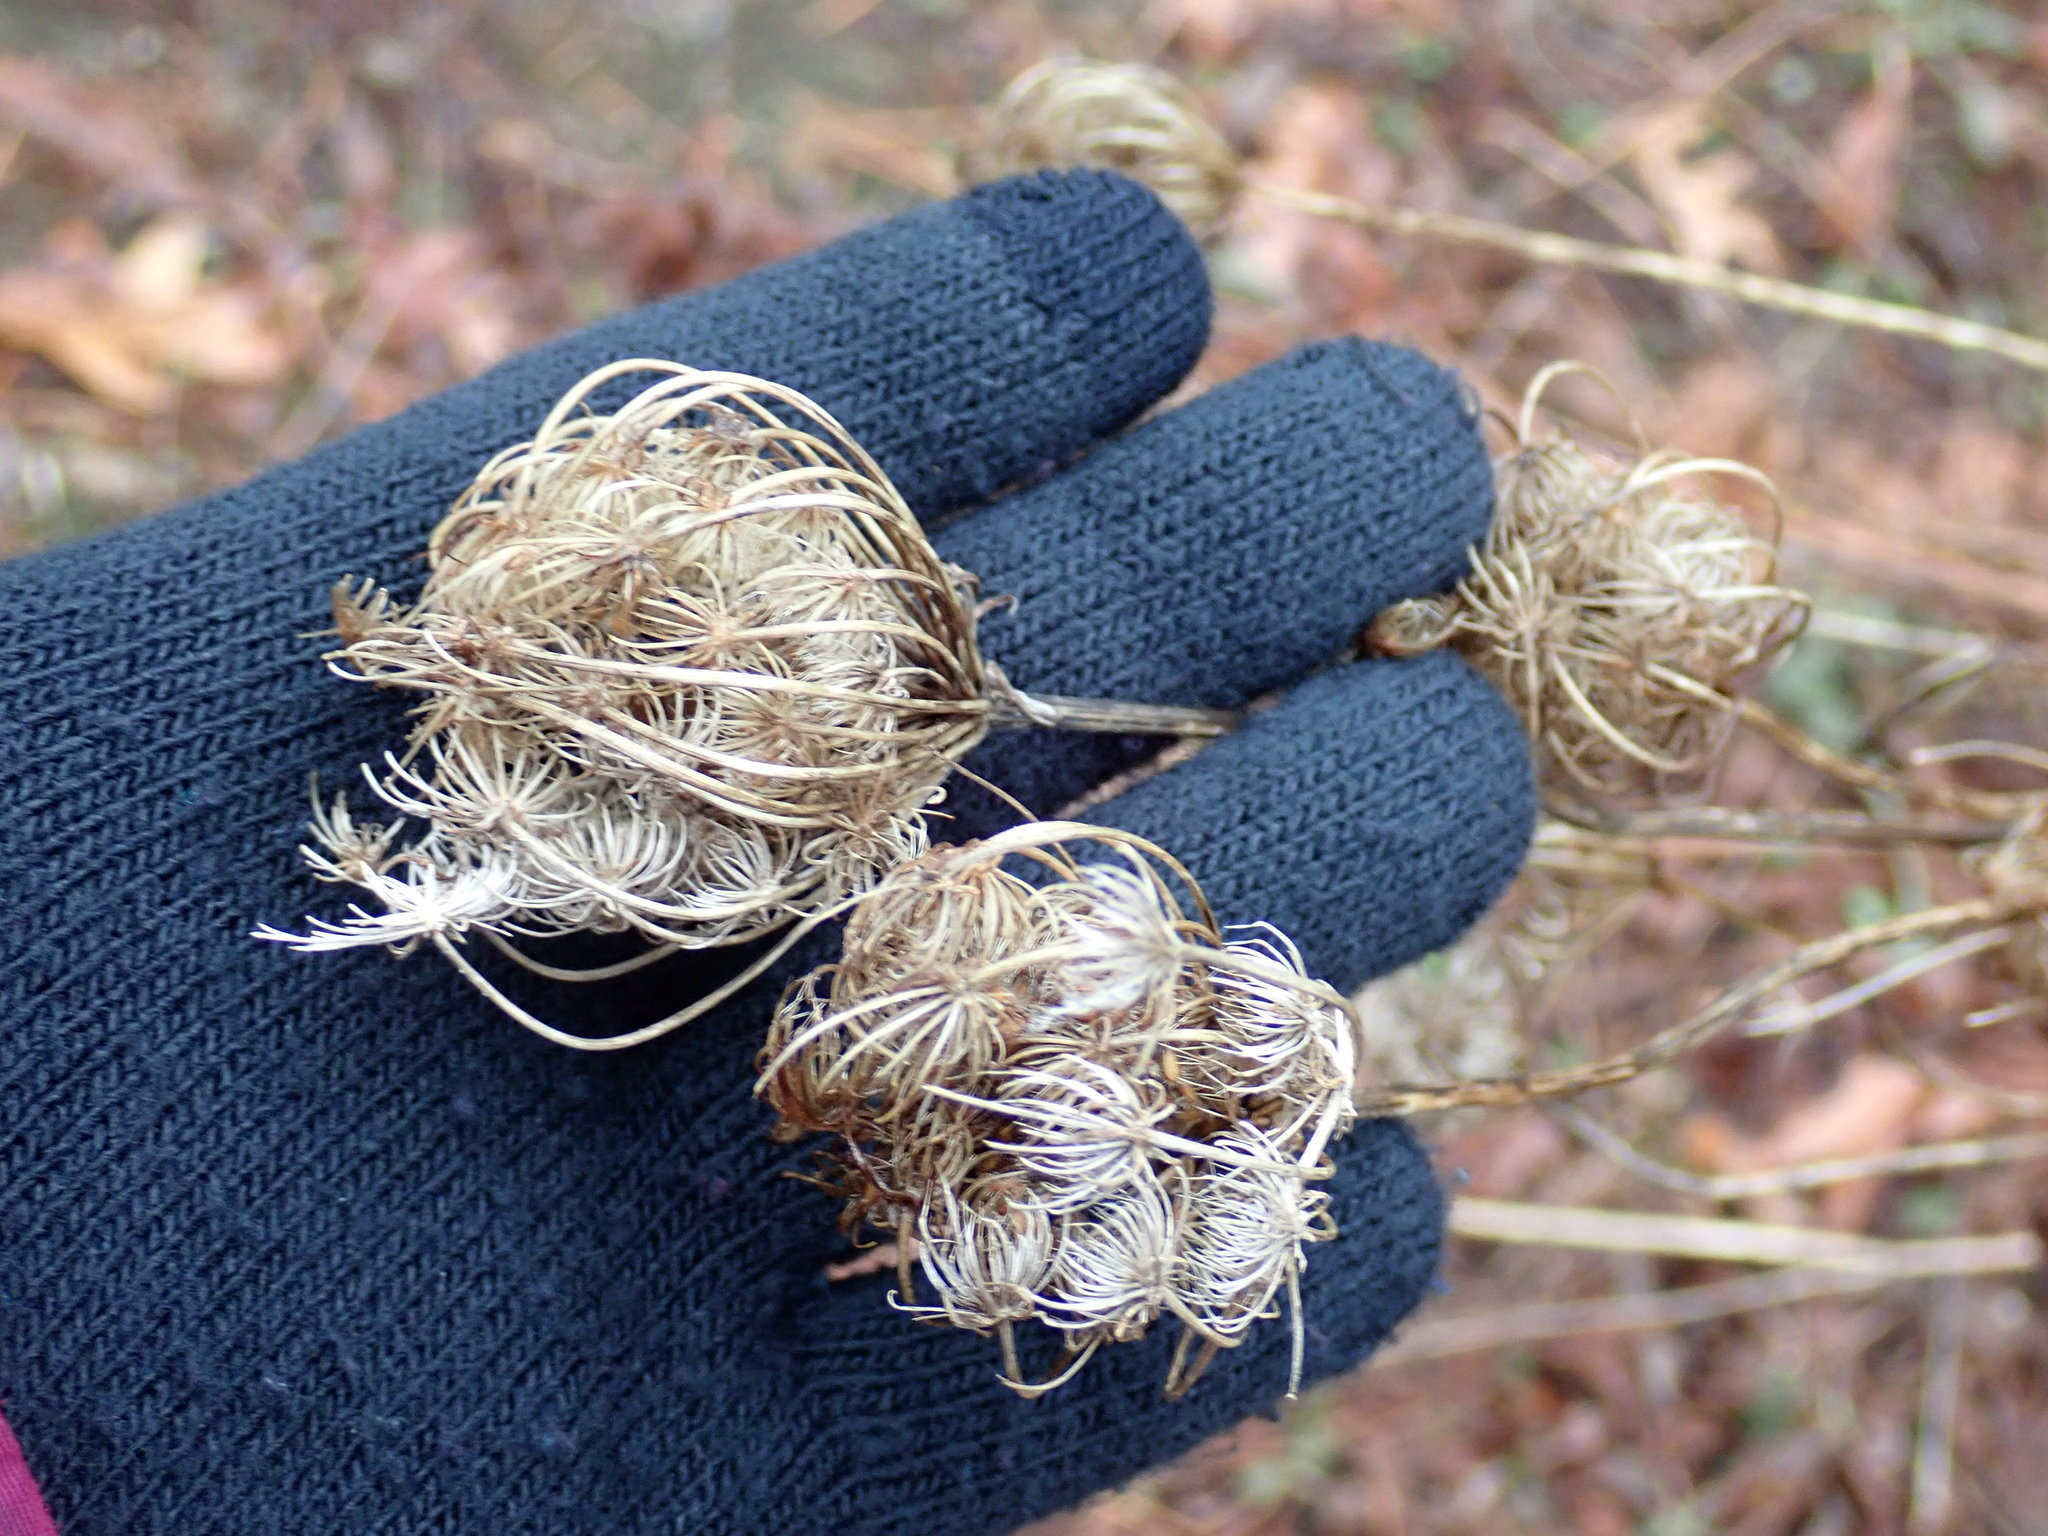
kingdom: Plantae
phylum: Tracheophyta
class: Magnoliopsida
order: Apiales
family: Apiaceae
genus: Daucus
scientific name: Daucus carota
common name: Wild carrot
